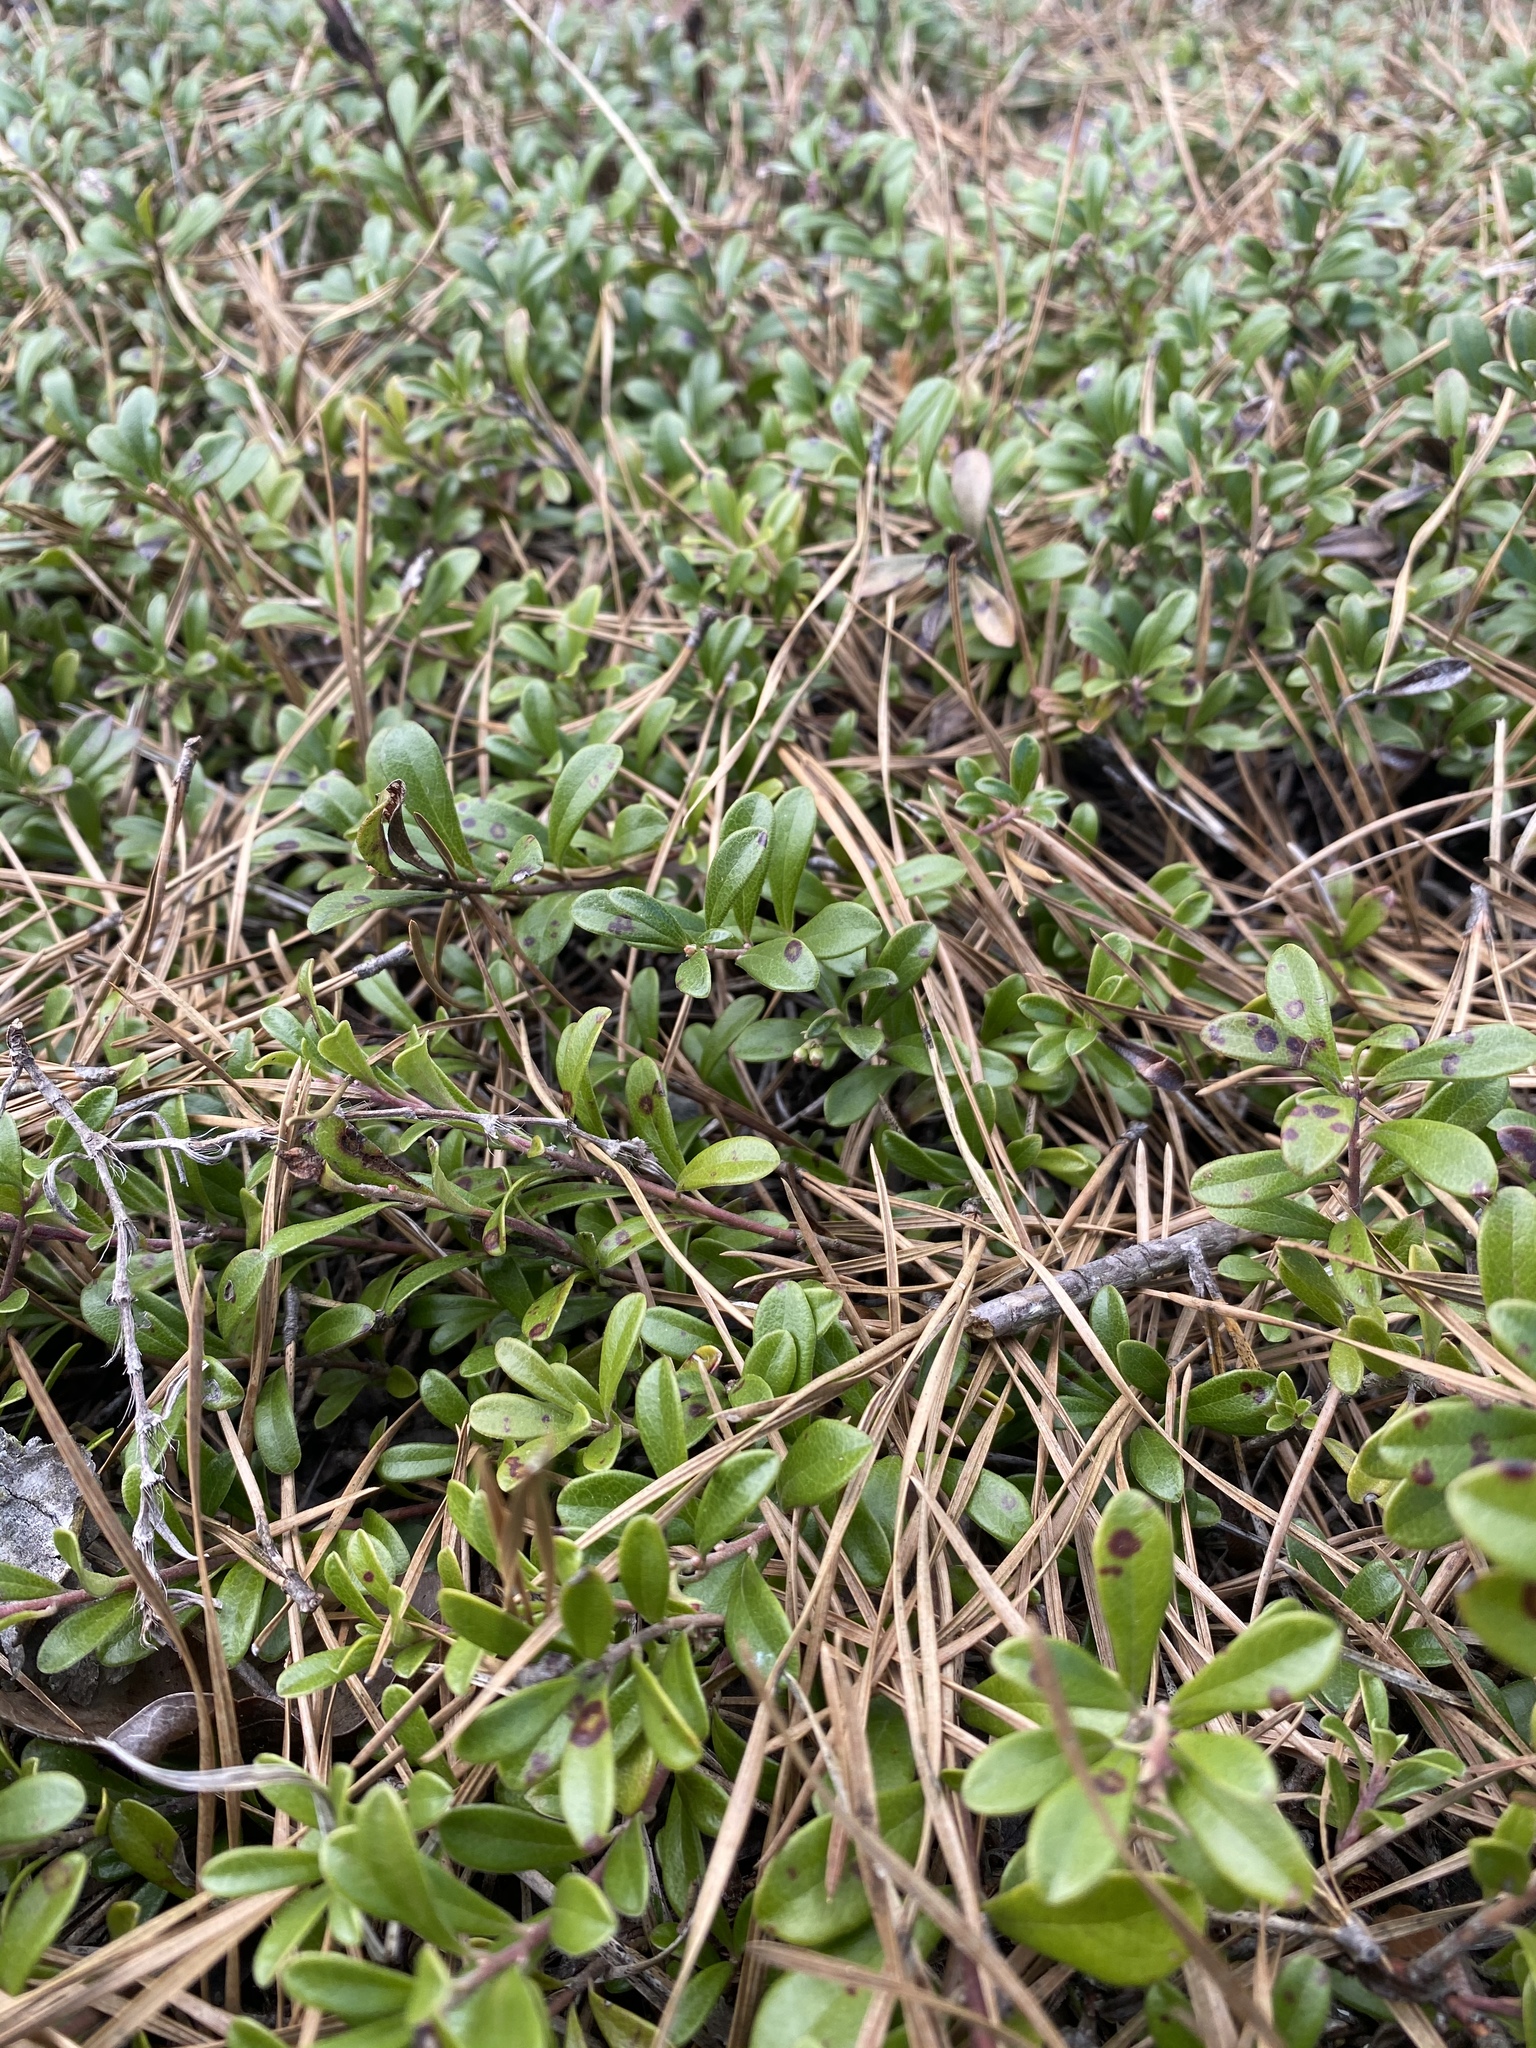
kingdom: Plantae
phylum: Tracheophyta
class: Magnoliopsida
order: Ericales
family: Ericaceae
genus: Arctostaphylos
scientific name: Arctostaphylos uva-ursi
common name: Bearberry
